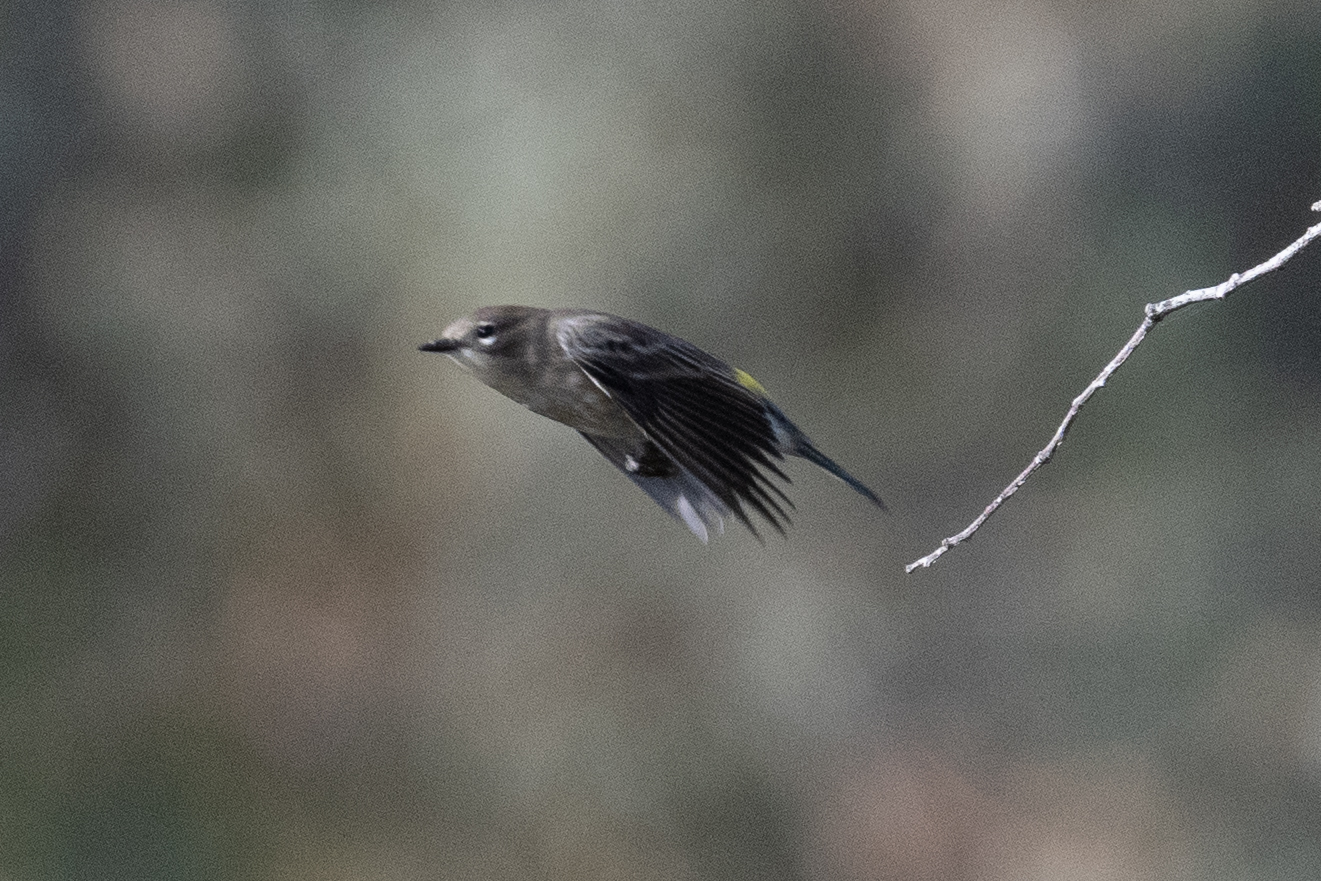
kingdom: Animalia
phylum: Chordata
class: Aves
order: Passeriformes
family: Parulidae
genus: Setophaga
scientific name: Setophaga coronata
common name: Myrtle warbler
